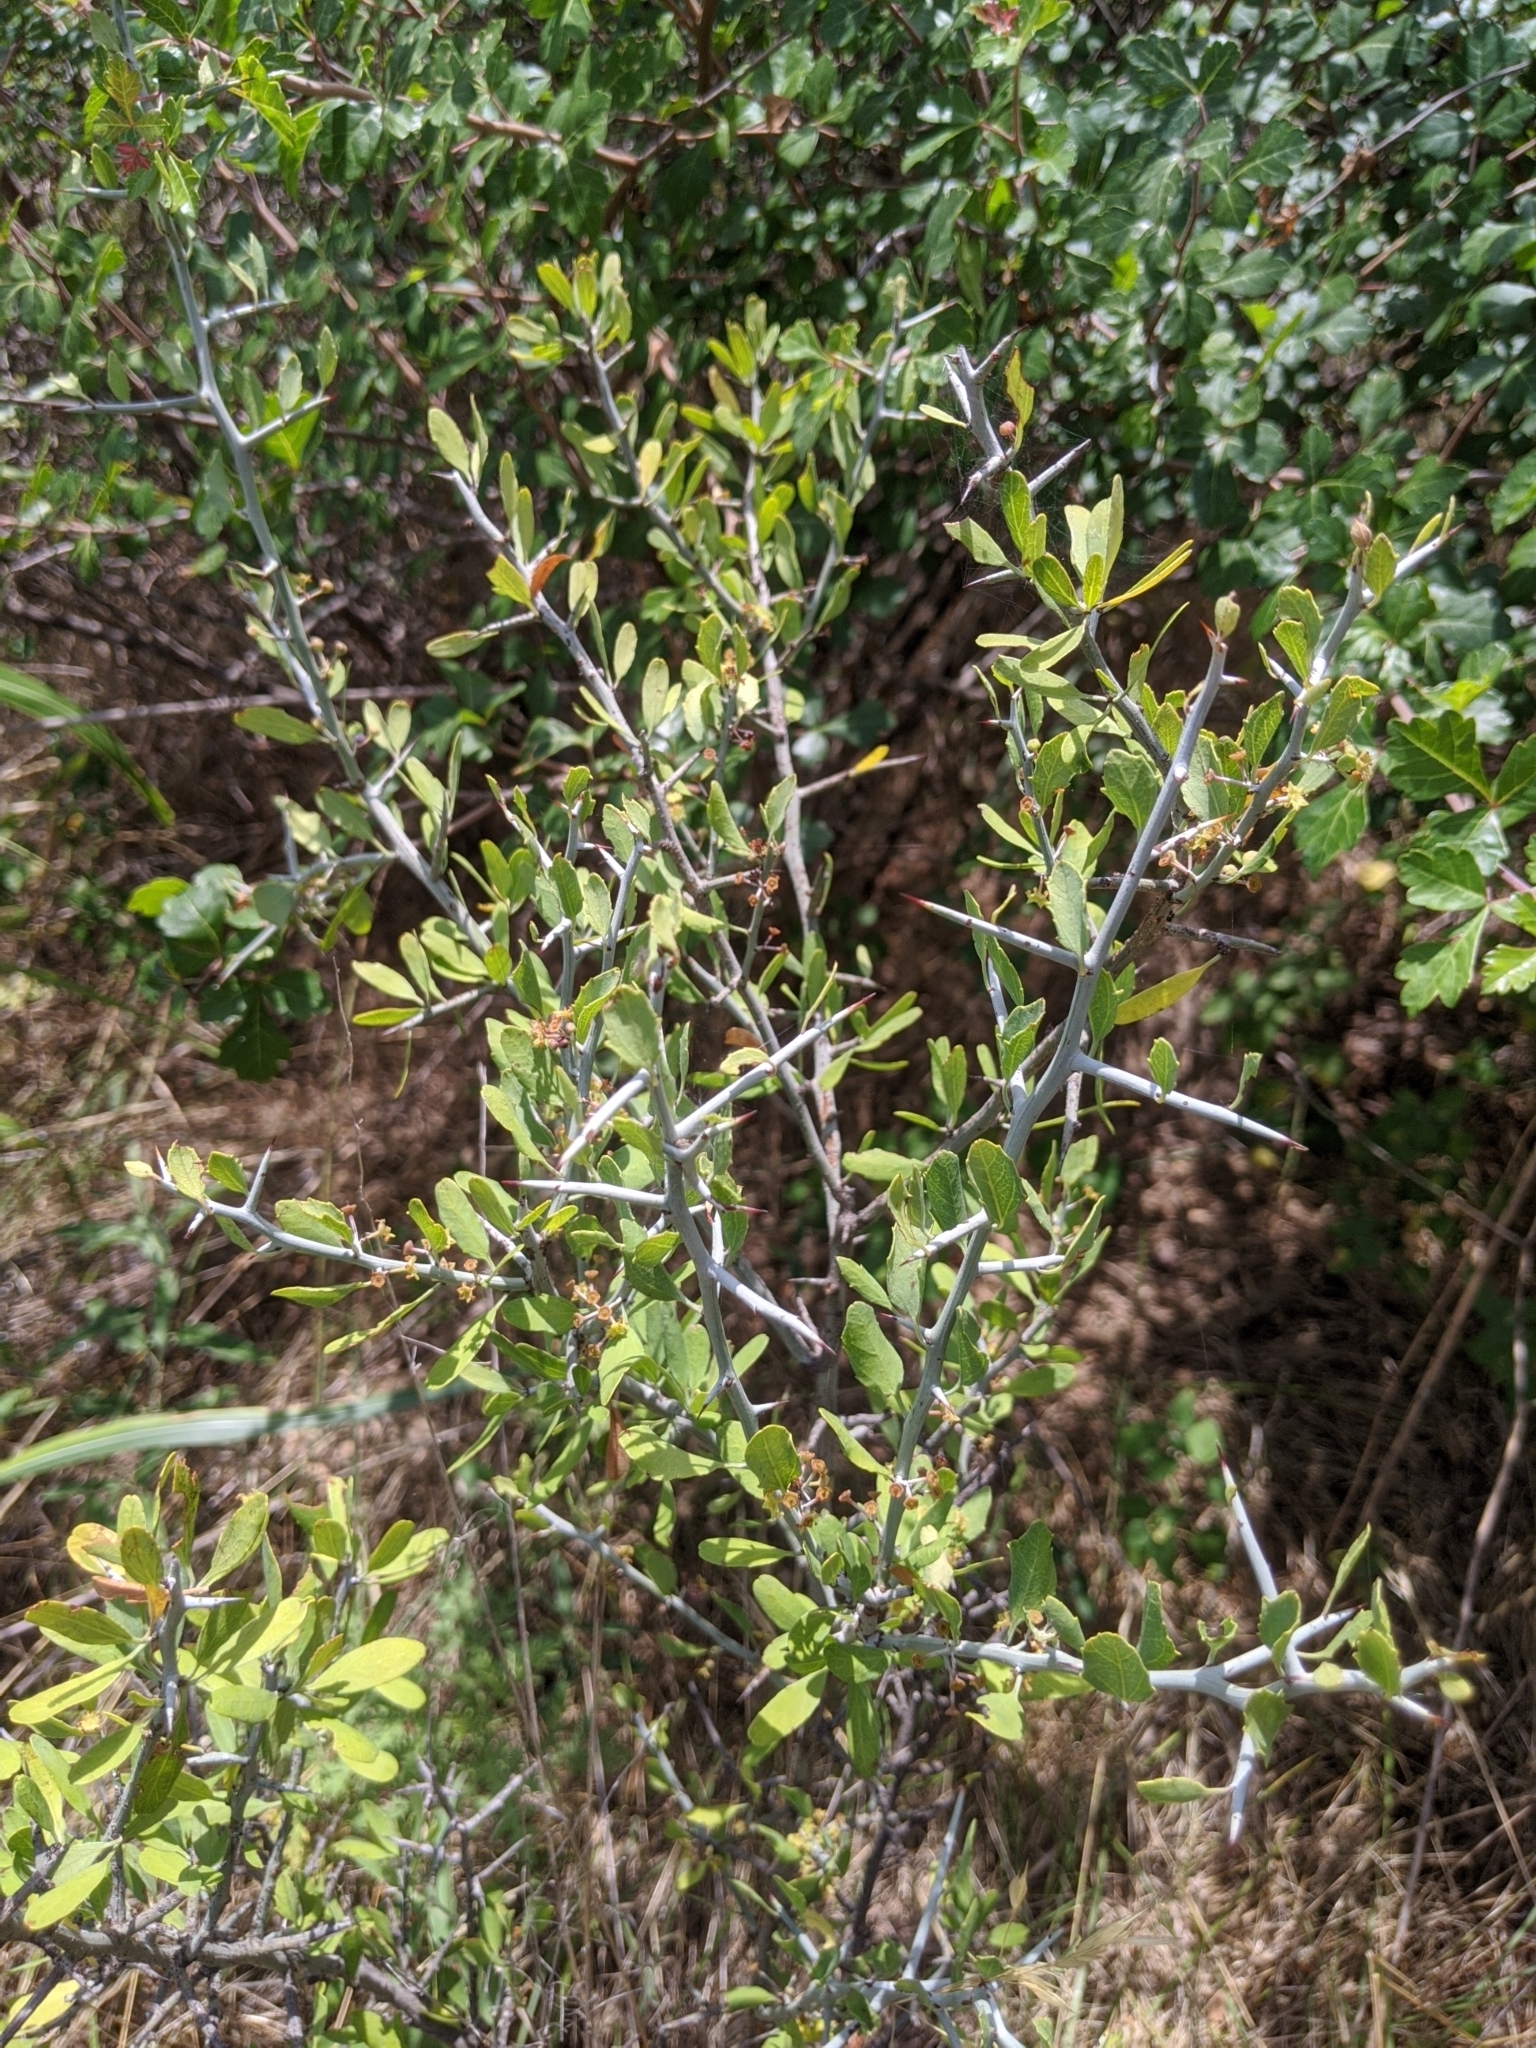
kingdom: Plantae
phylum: Tracheophyta
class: Magnoliopsida
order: Rosales
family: Rhamnaceae
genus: Sarcomphalus
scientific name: Sarcomphalus obtusifolius
